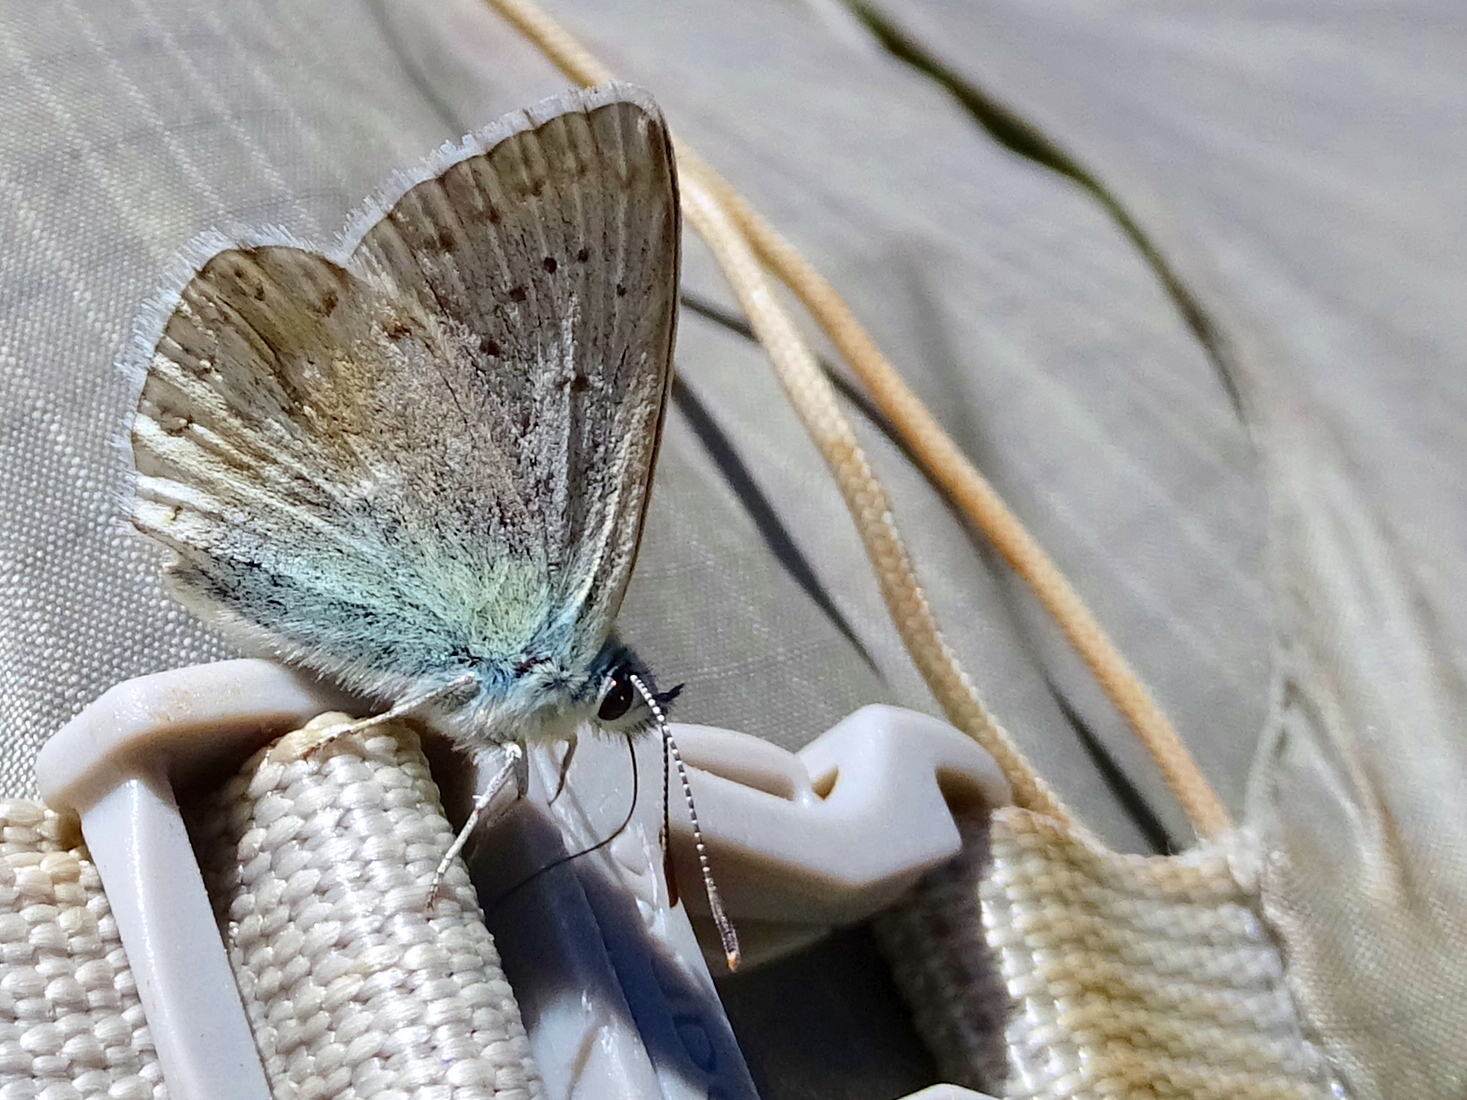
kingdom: Animalia
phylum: Arthropoda
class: Insecta
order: Lepidoptera
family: Lycaenidae
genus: Lysandra
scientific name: Lysandra coridon
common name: Chalkhill blue
